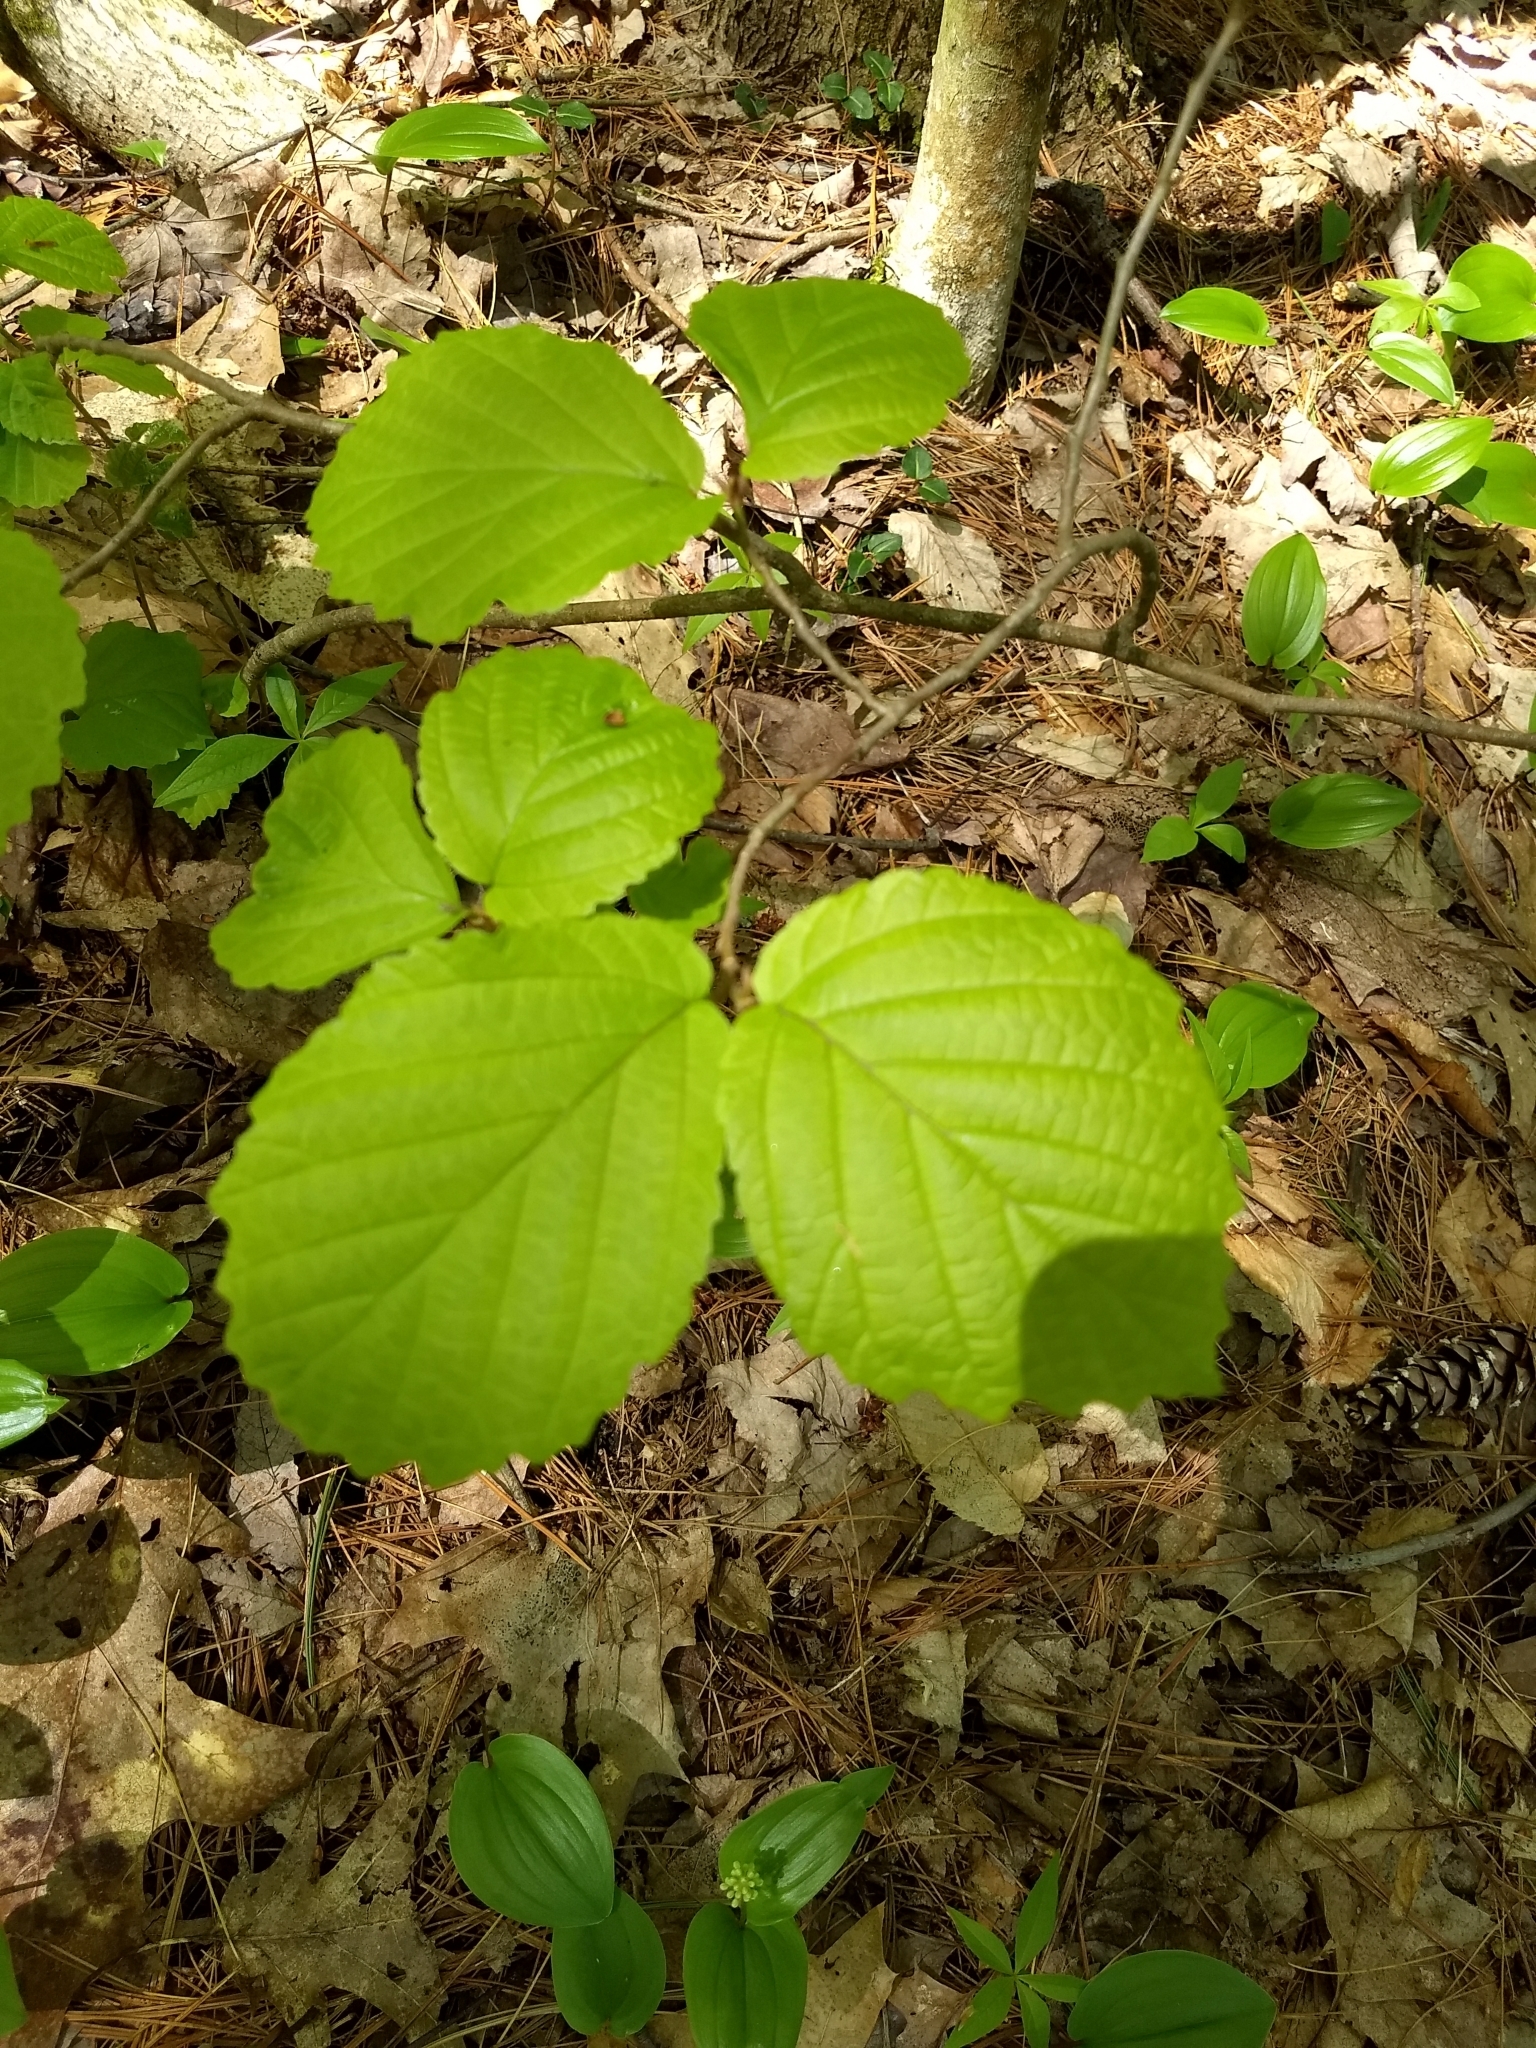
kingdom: Plantae
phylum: Tracheophyta
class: Magnoliopsida
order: Saxifragales
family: Hamamelidaceae
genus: Hamamelis
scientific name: Hamamelis virginiana
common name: Witch-hazel
